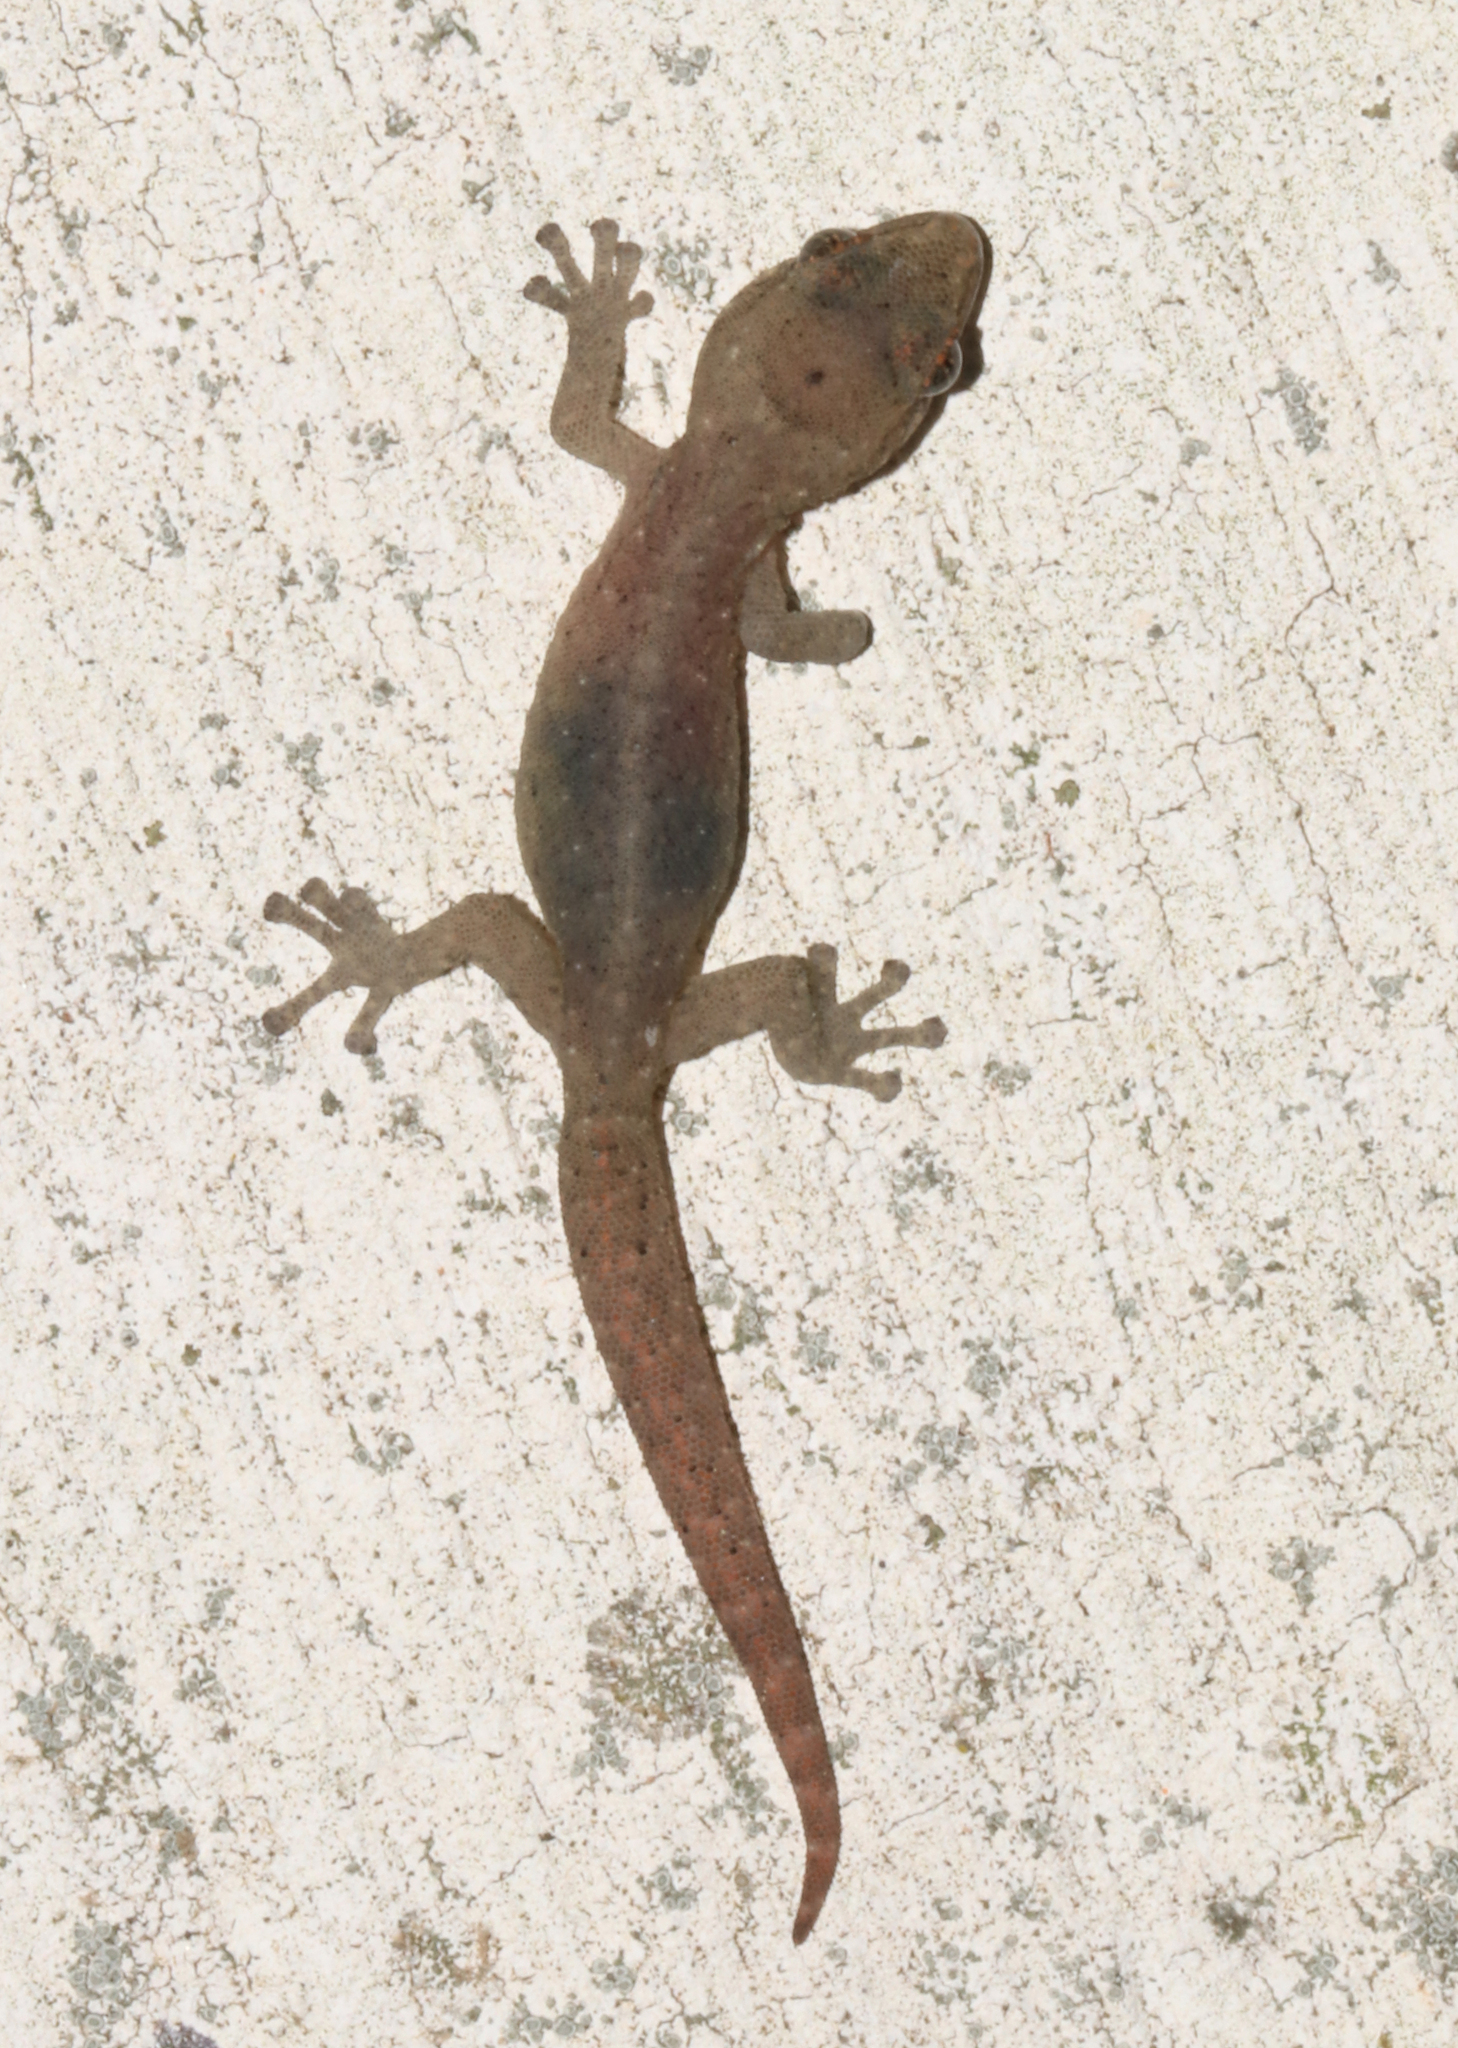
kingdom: Animalia
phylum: Chordata
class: Squamata
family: Gekkonidae
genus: Afrogecko
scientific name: Afrogecko porphyreus
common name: Marbled leaf-toed gecko
